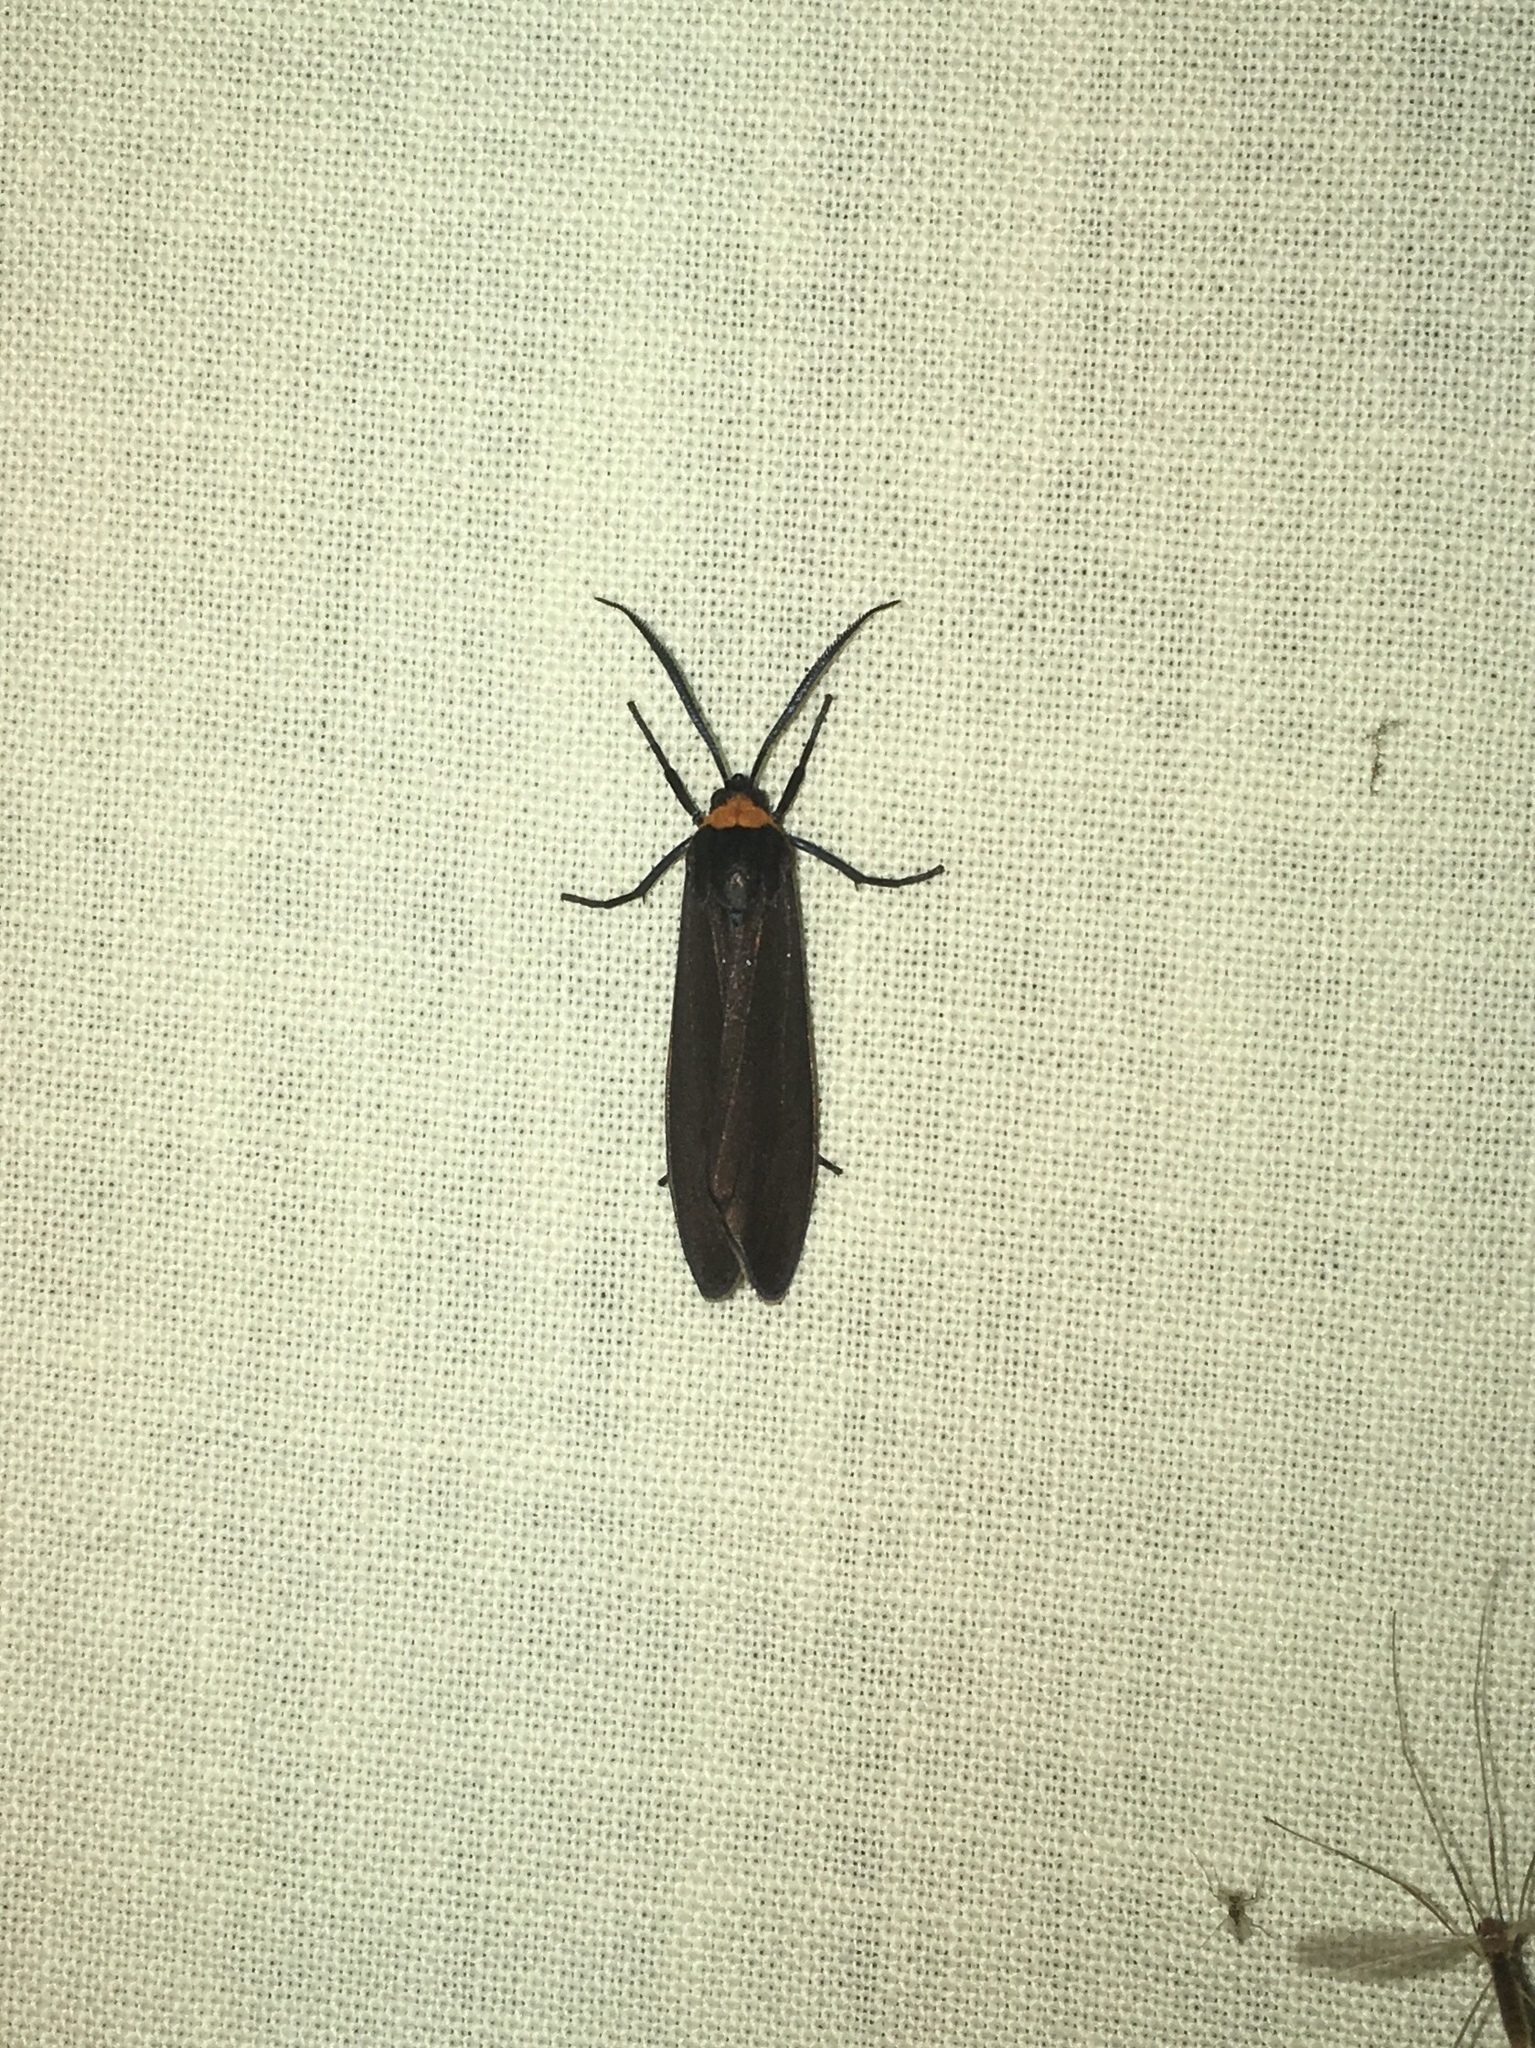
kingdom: Animalia
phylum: Arthropoda
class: Insecta
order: Lepidoptera
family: Erebidae
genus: Cisseps
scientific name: Cisseps fulvicollis
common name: Yellow-collared scape moth
